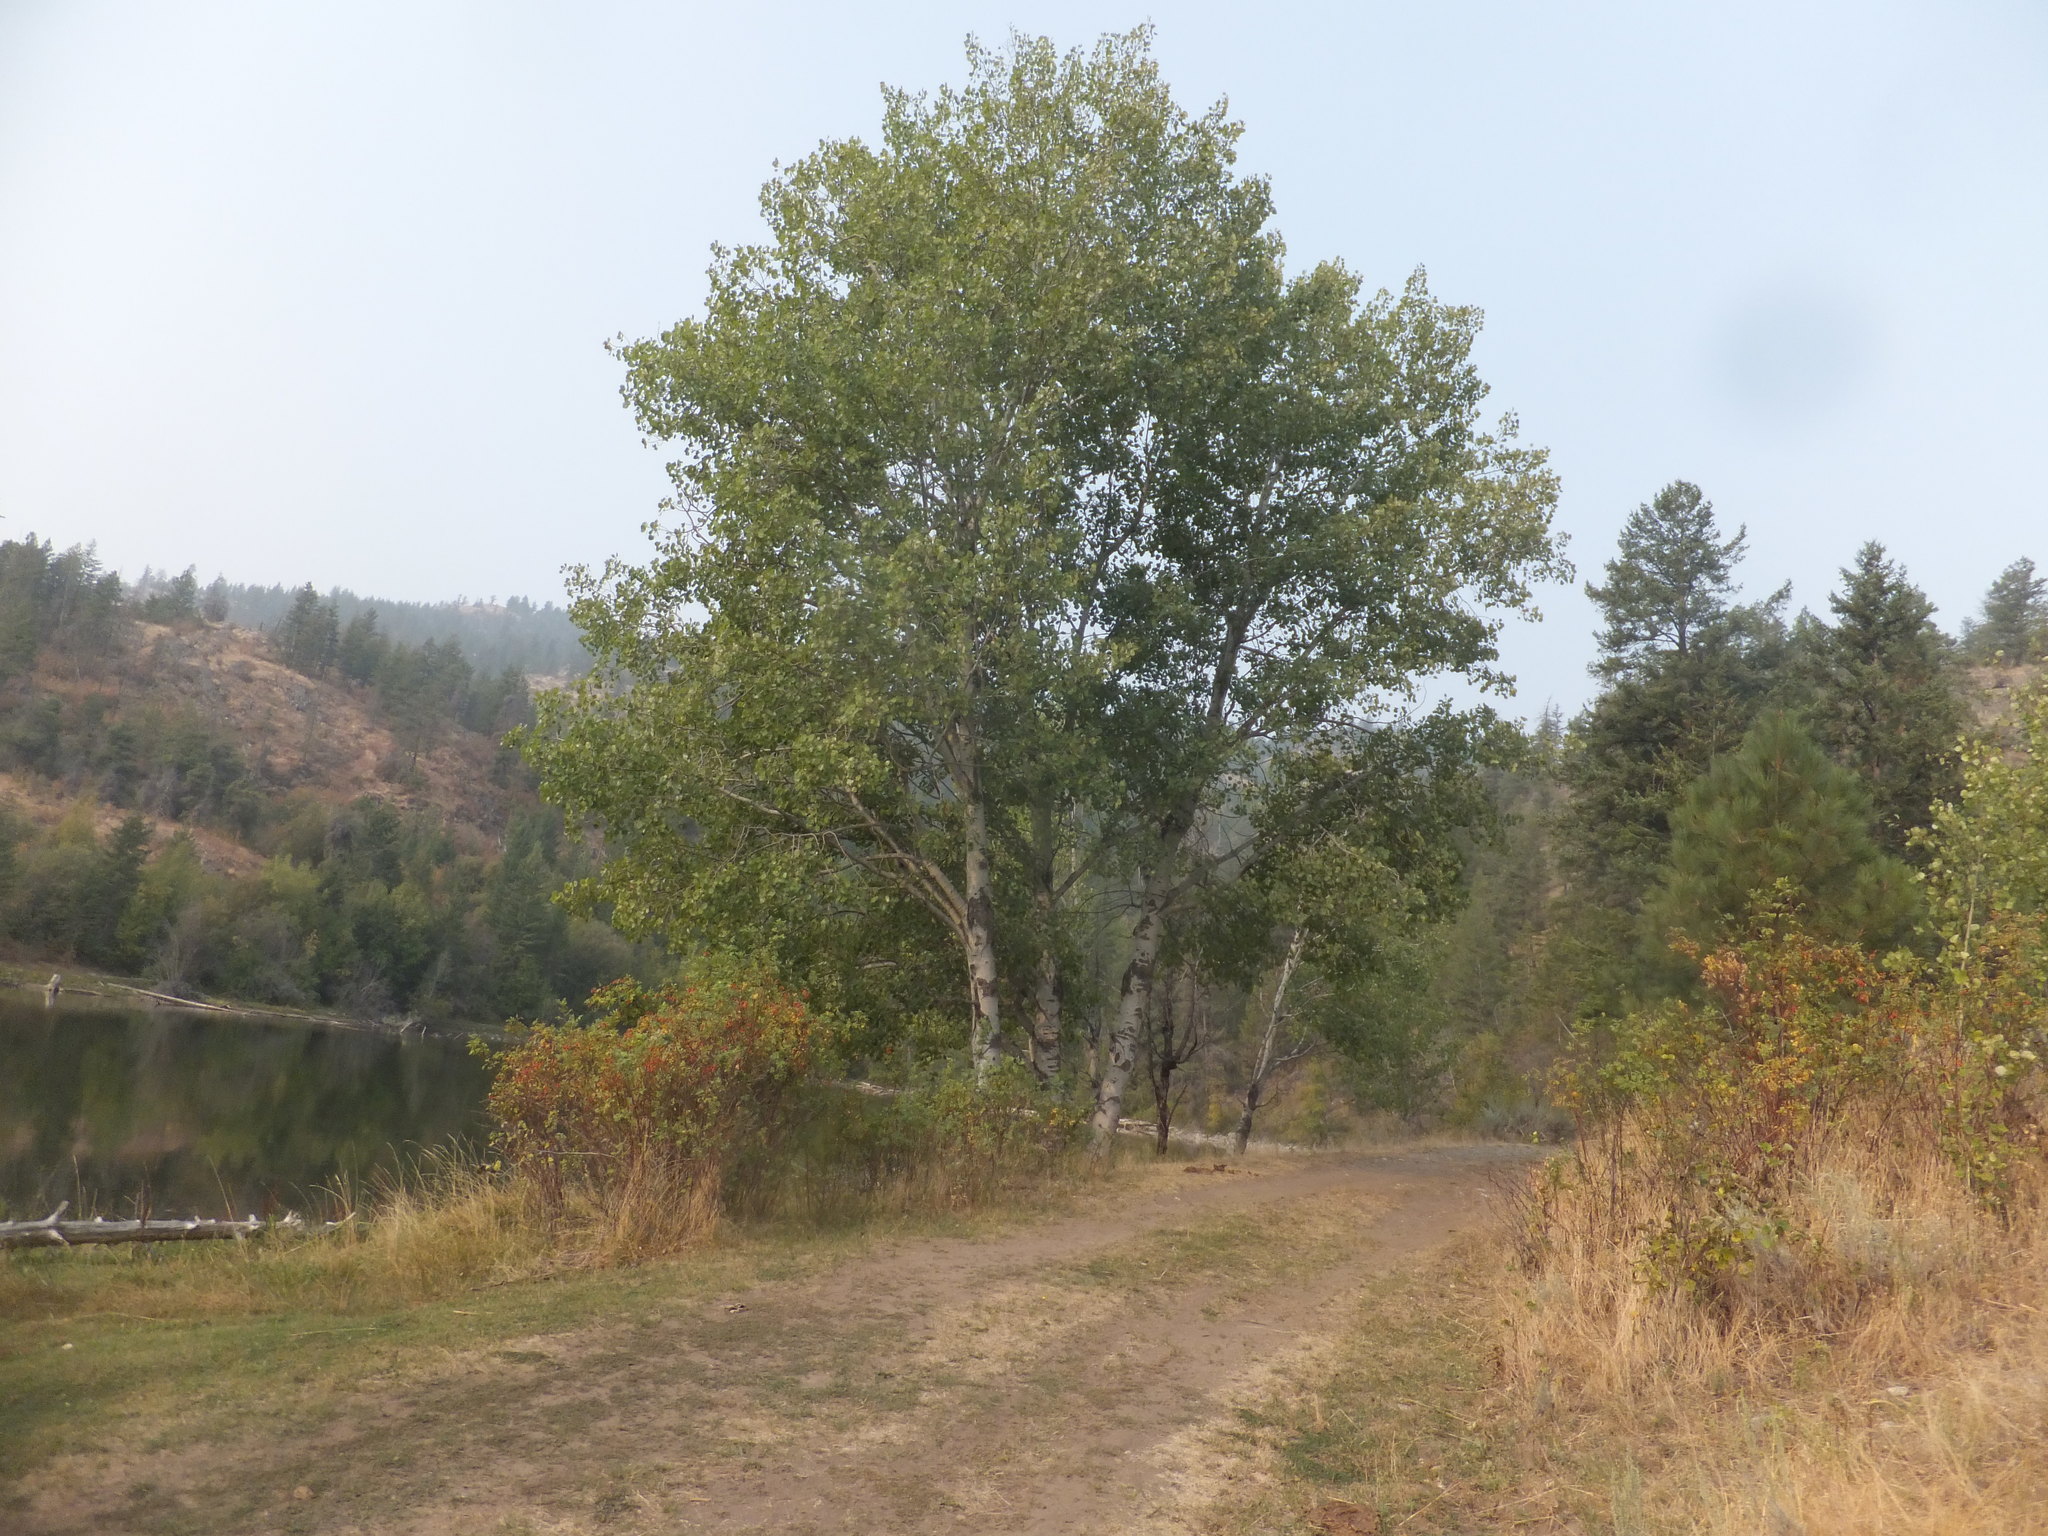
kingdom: Plantae
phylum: Tracheophyta
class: Magnoliopsida
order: Malpighiales
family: Salicaceae
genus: Populus
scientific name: Populus tremuloides
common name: Quaking aspen
